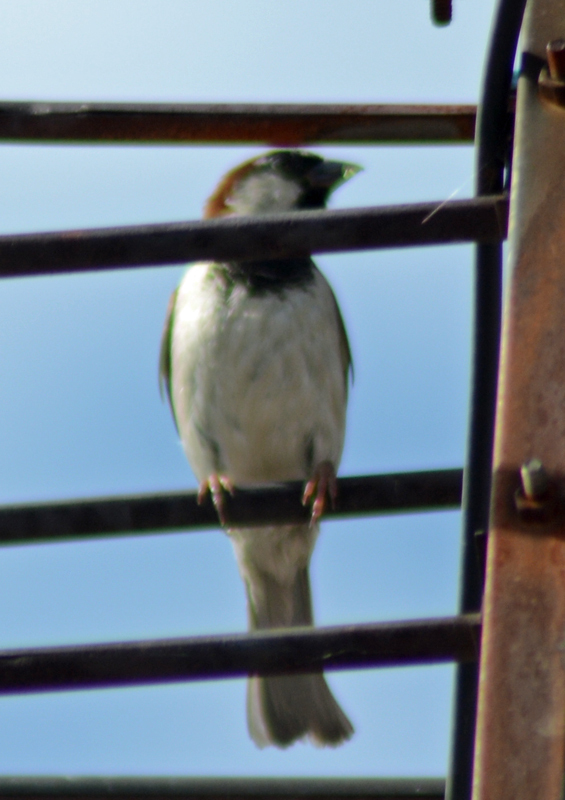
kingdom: Animalia
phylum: Chordata
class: Aves
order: Passeriformes
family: Passeridae
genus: Passer
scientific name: Passer domesticus
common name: House sparrow
